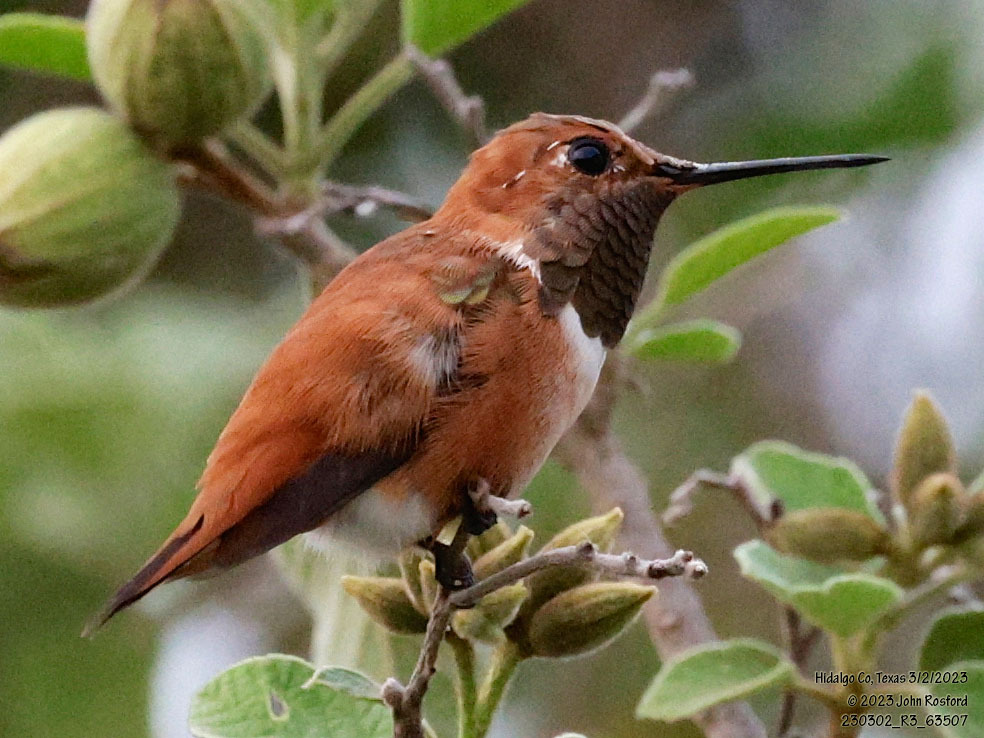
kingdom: Animalia
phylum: Chordata
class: Aves
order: Apodiformes
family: Trochilidae
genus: Selasphorus
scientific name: Selasphorus rufus
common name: Rufous hummingbird
